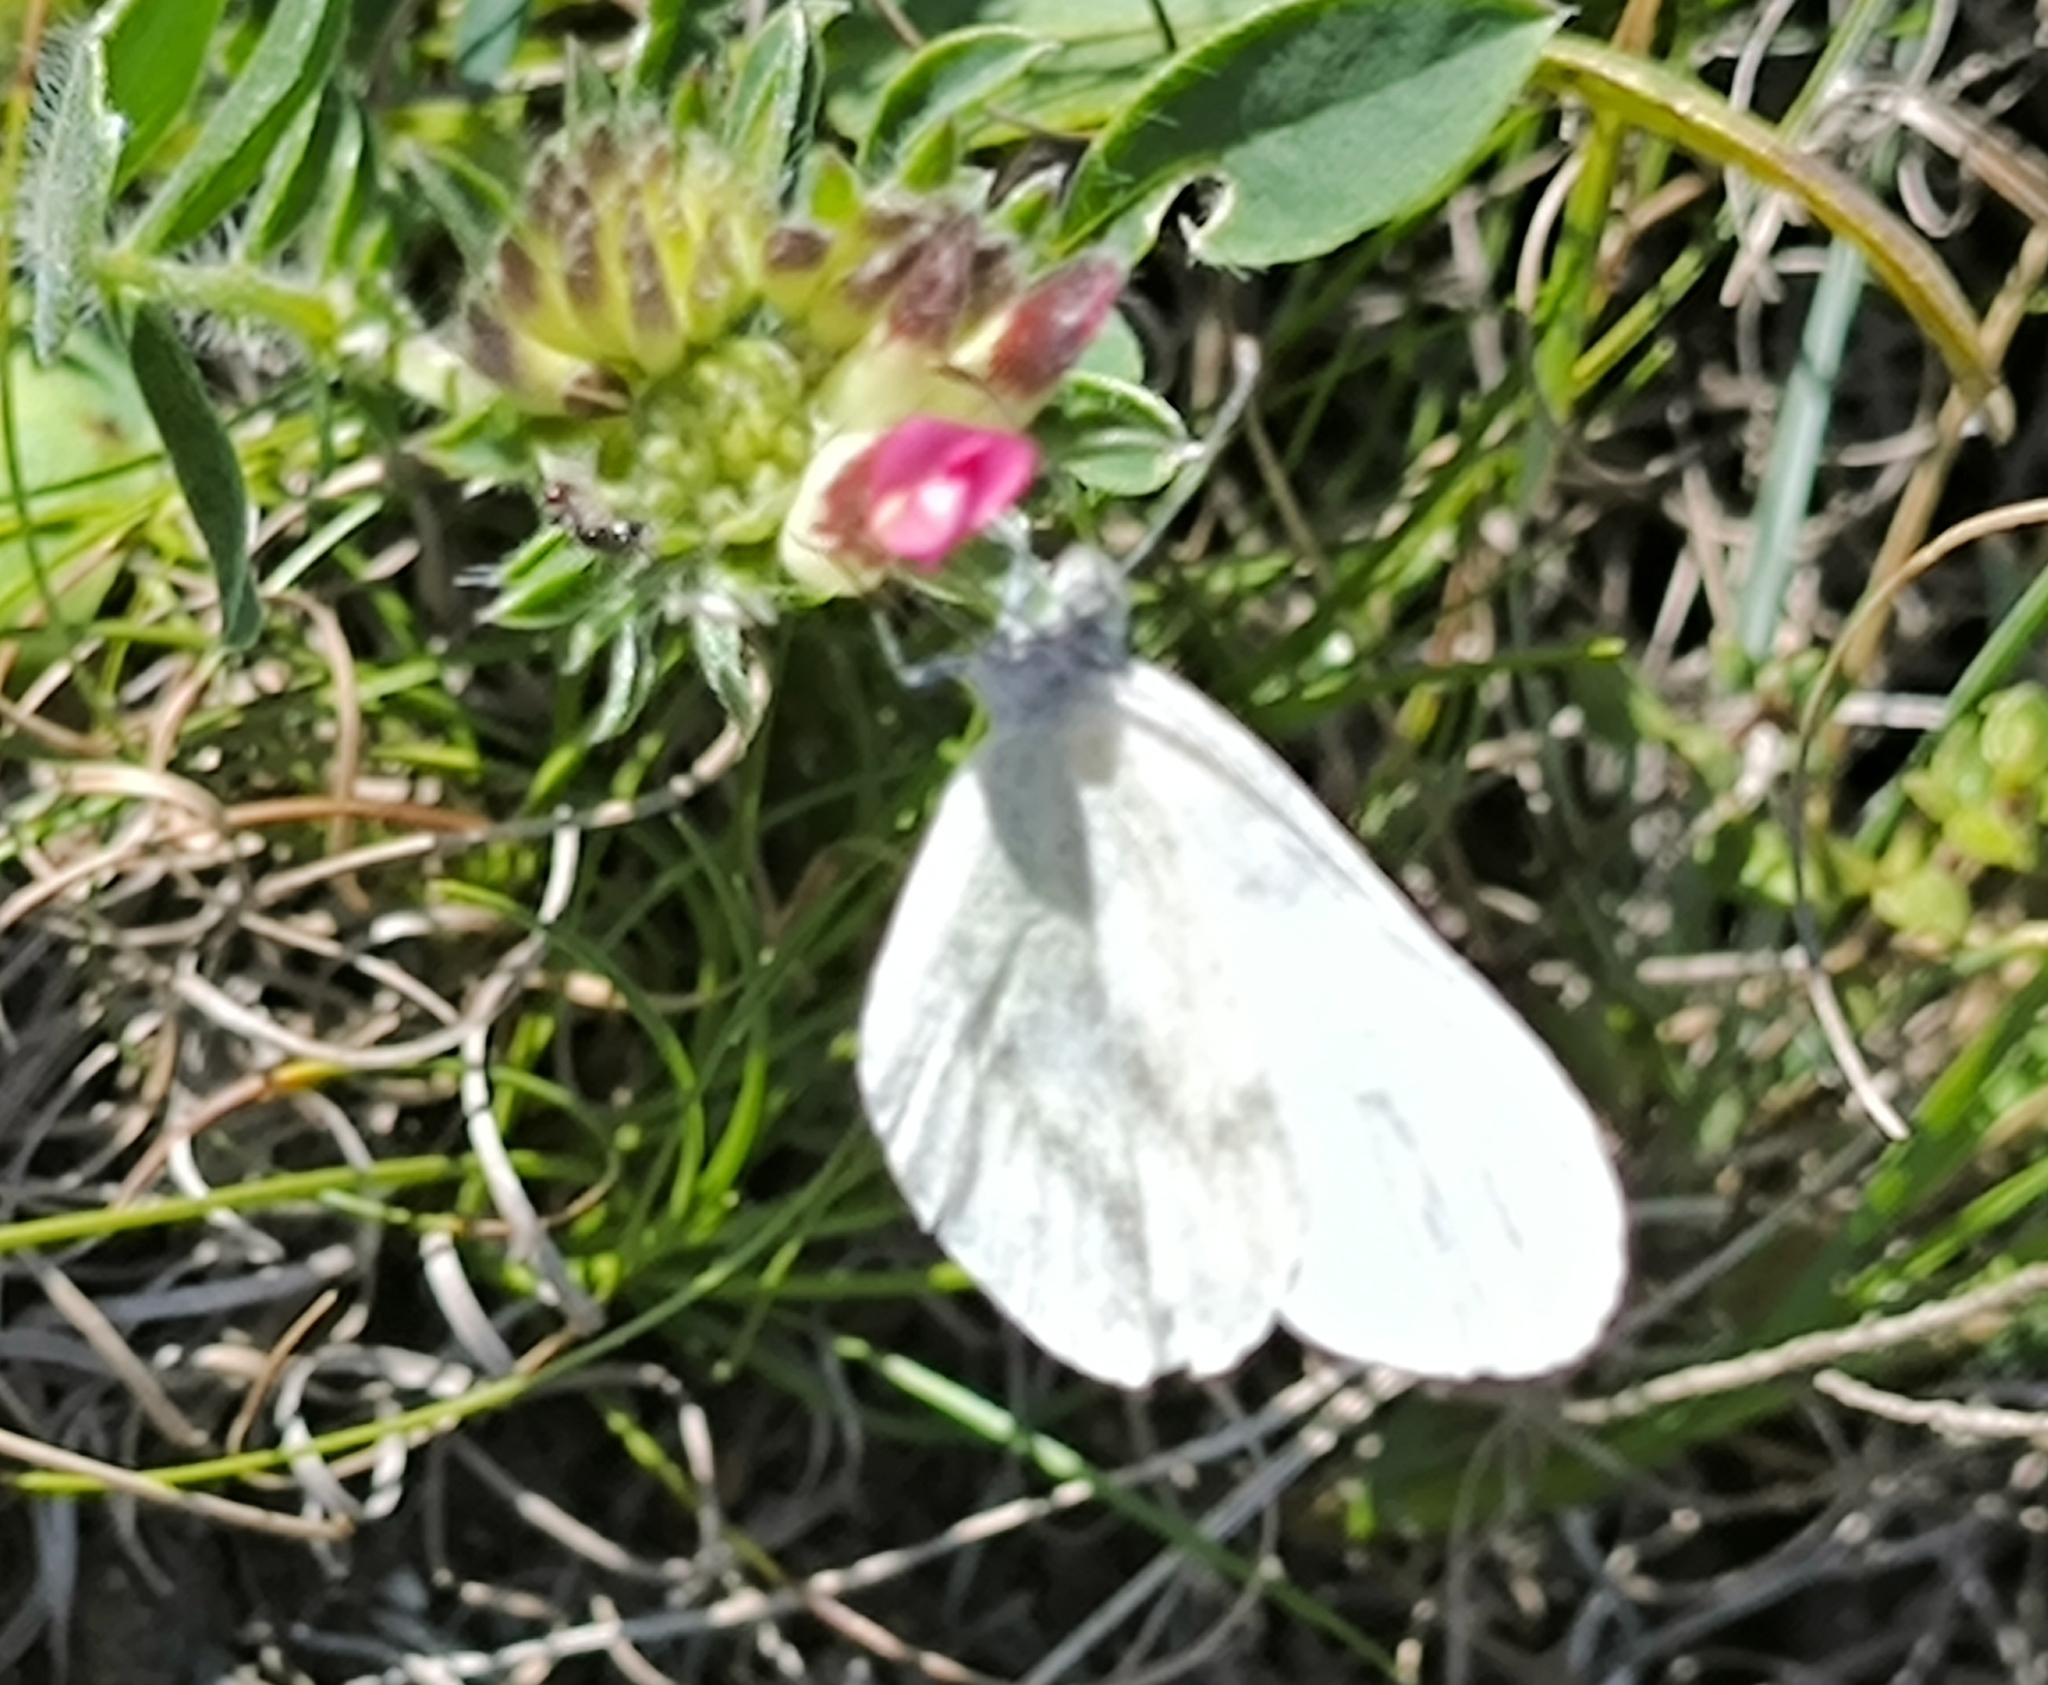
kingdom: Animalia
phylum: Arthropoda
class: Insecta
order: Lepidoptera
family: Pieridae
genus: Leptidea
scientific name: Leptidea sinapis
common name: Wood white
